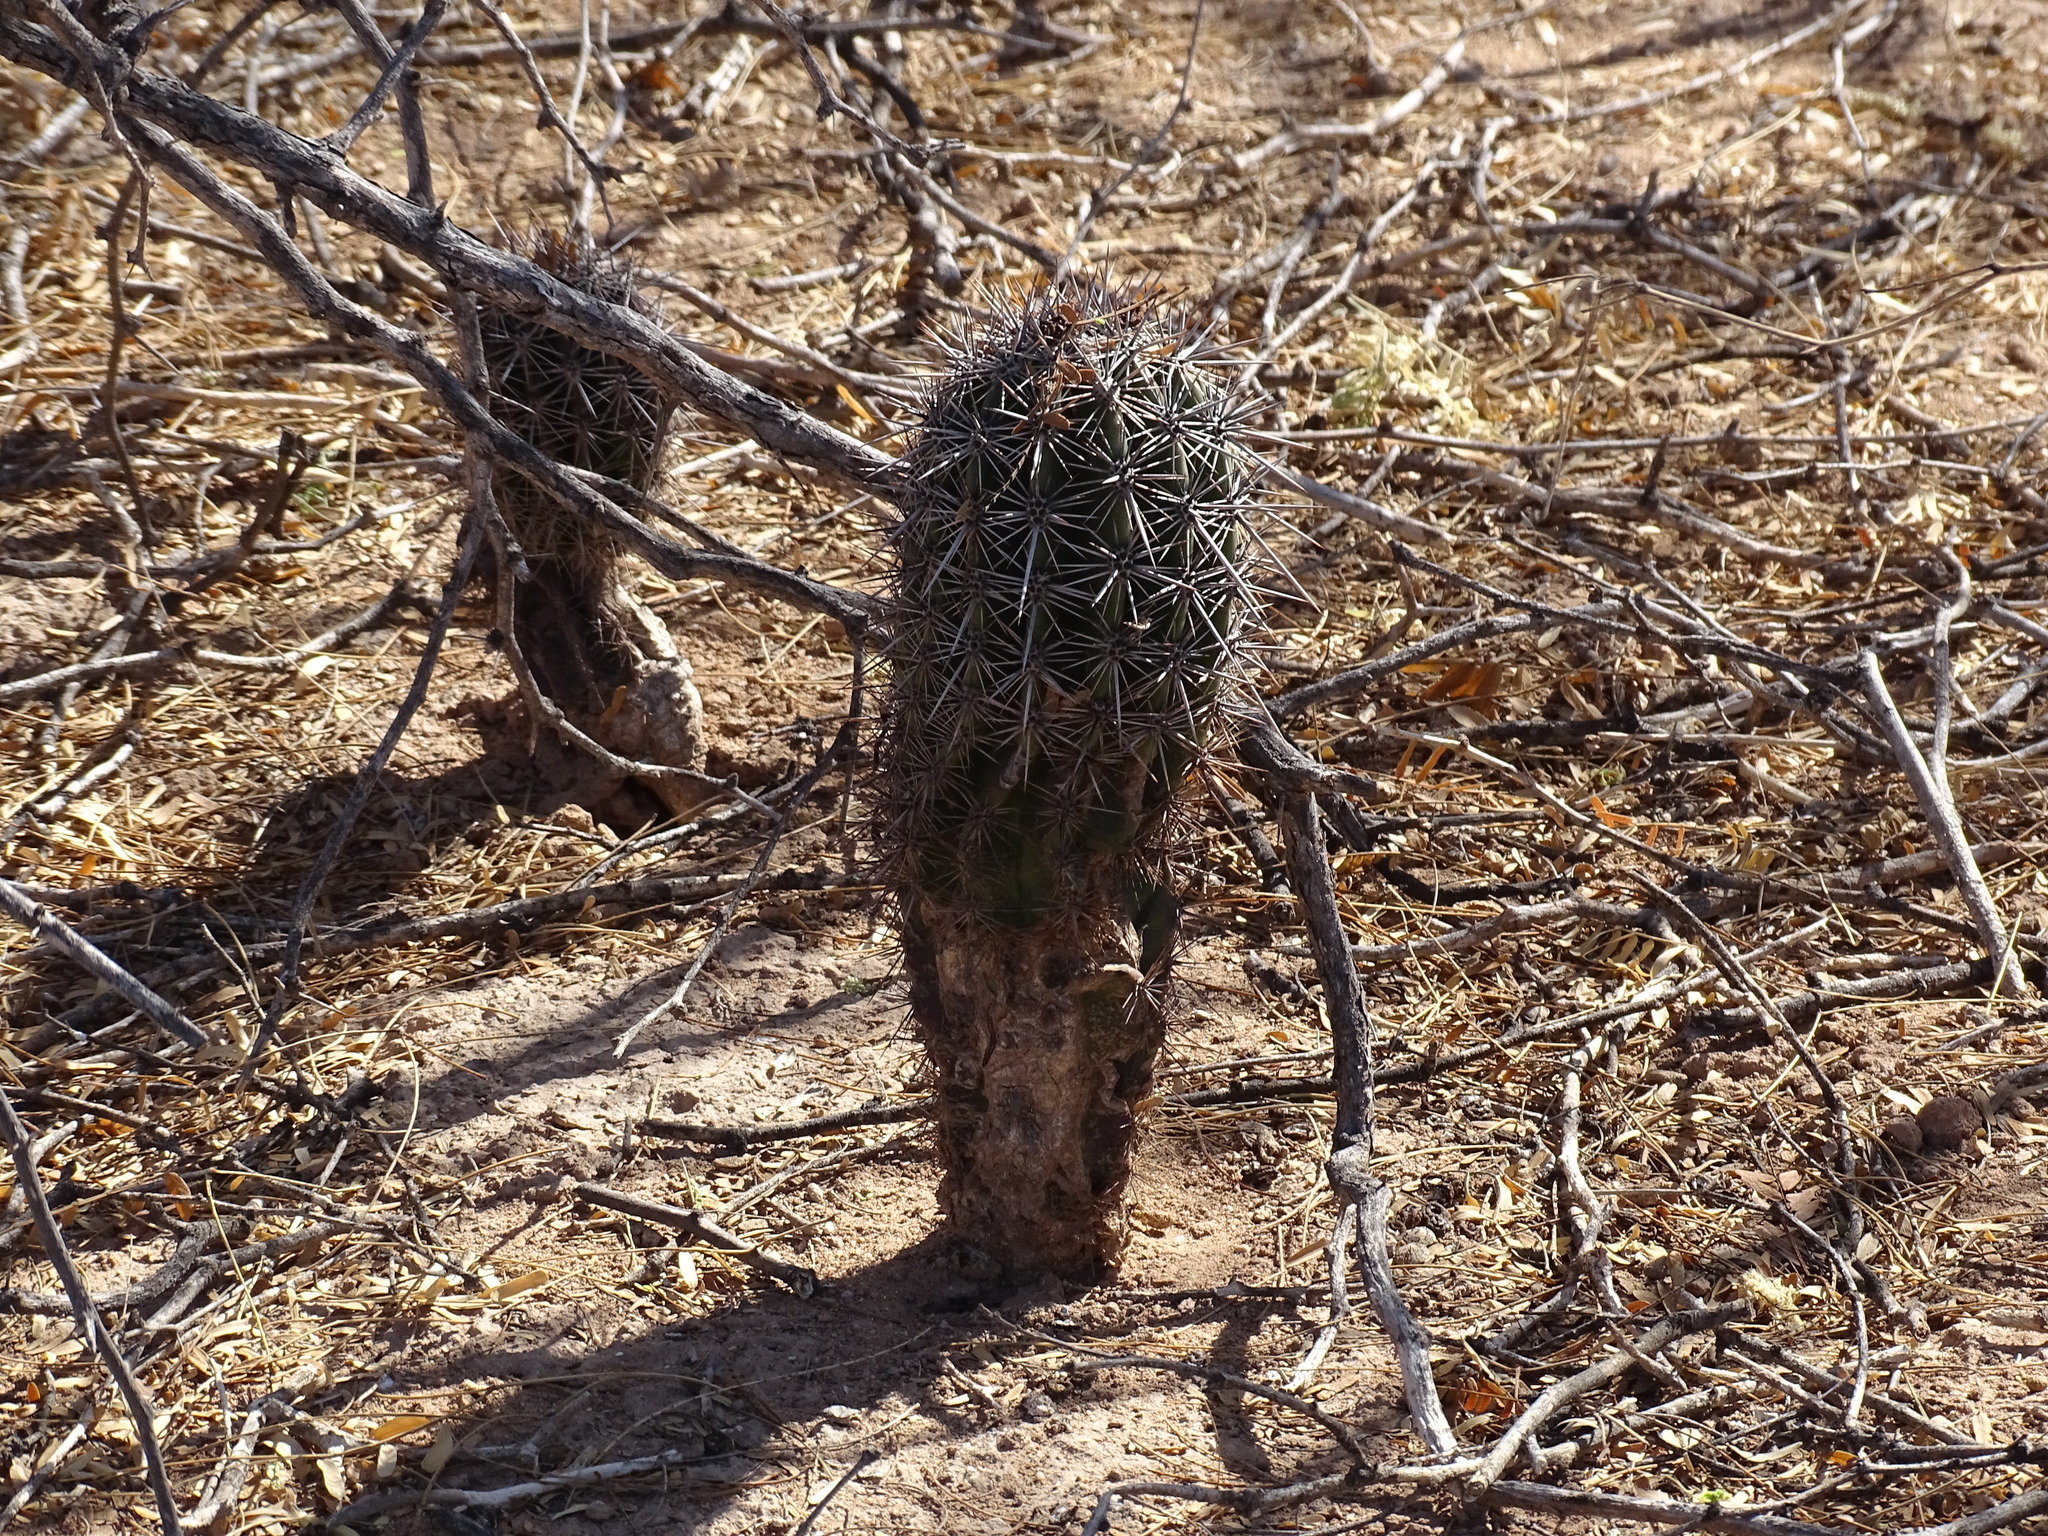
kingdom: Plantae
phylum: Tracheophyta
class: Magnoliopsida
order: Caryophyllales
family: Cactaceae
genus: Carnegiea
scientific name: Carnegiea gigantea
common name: Saguaro
